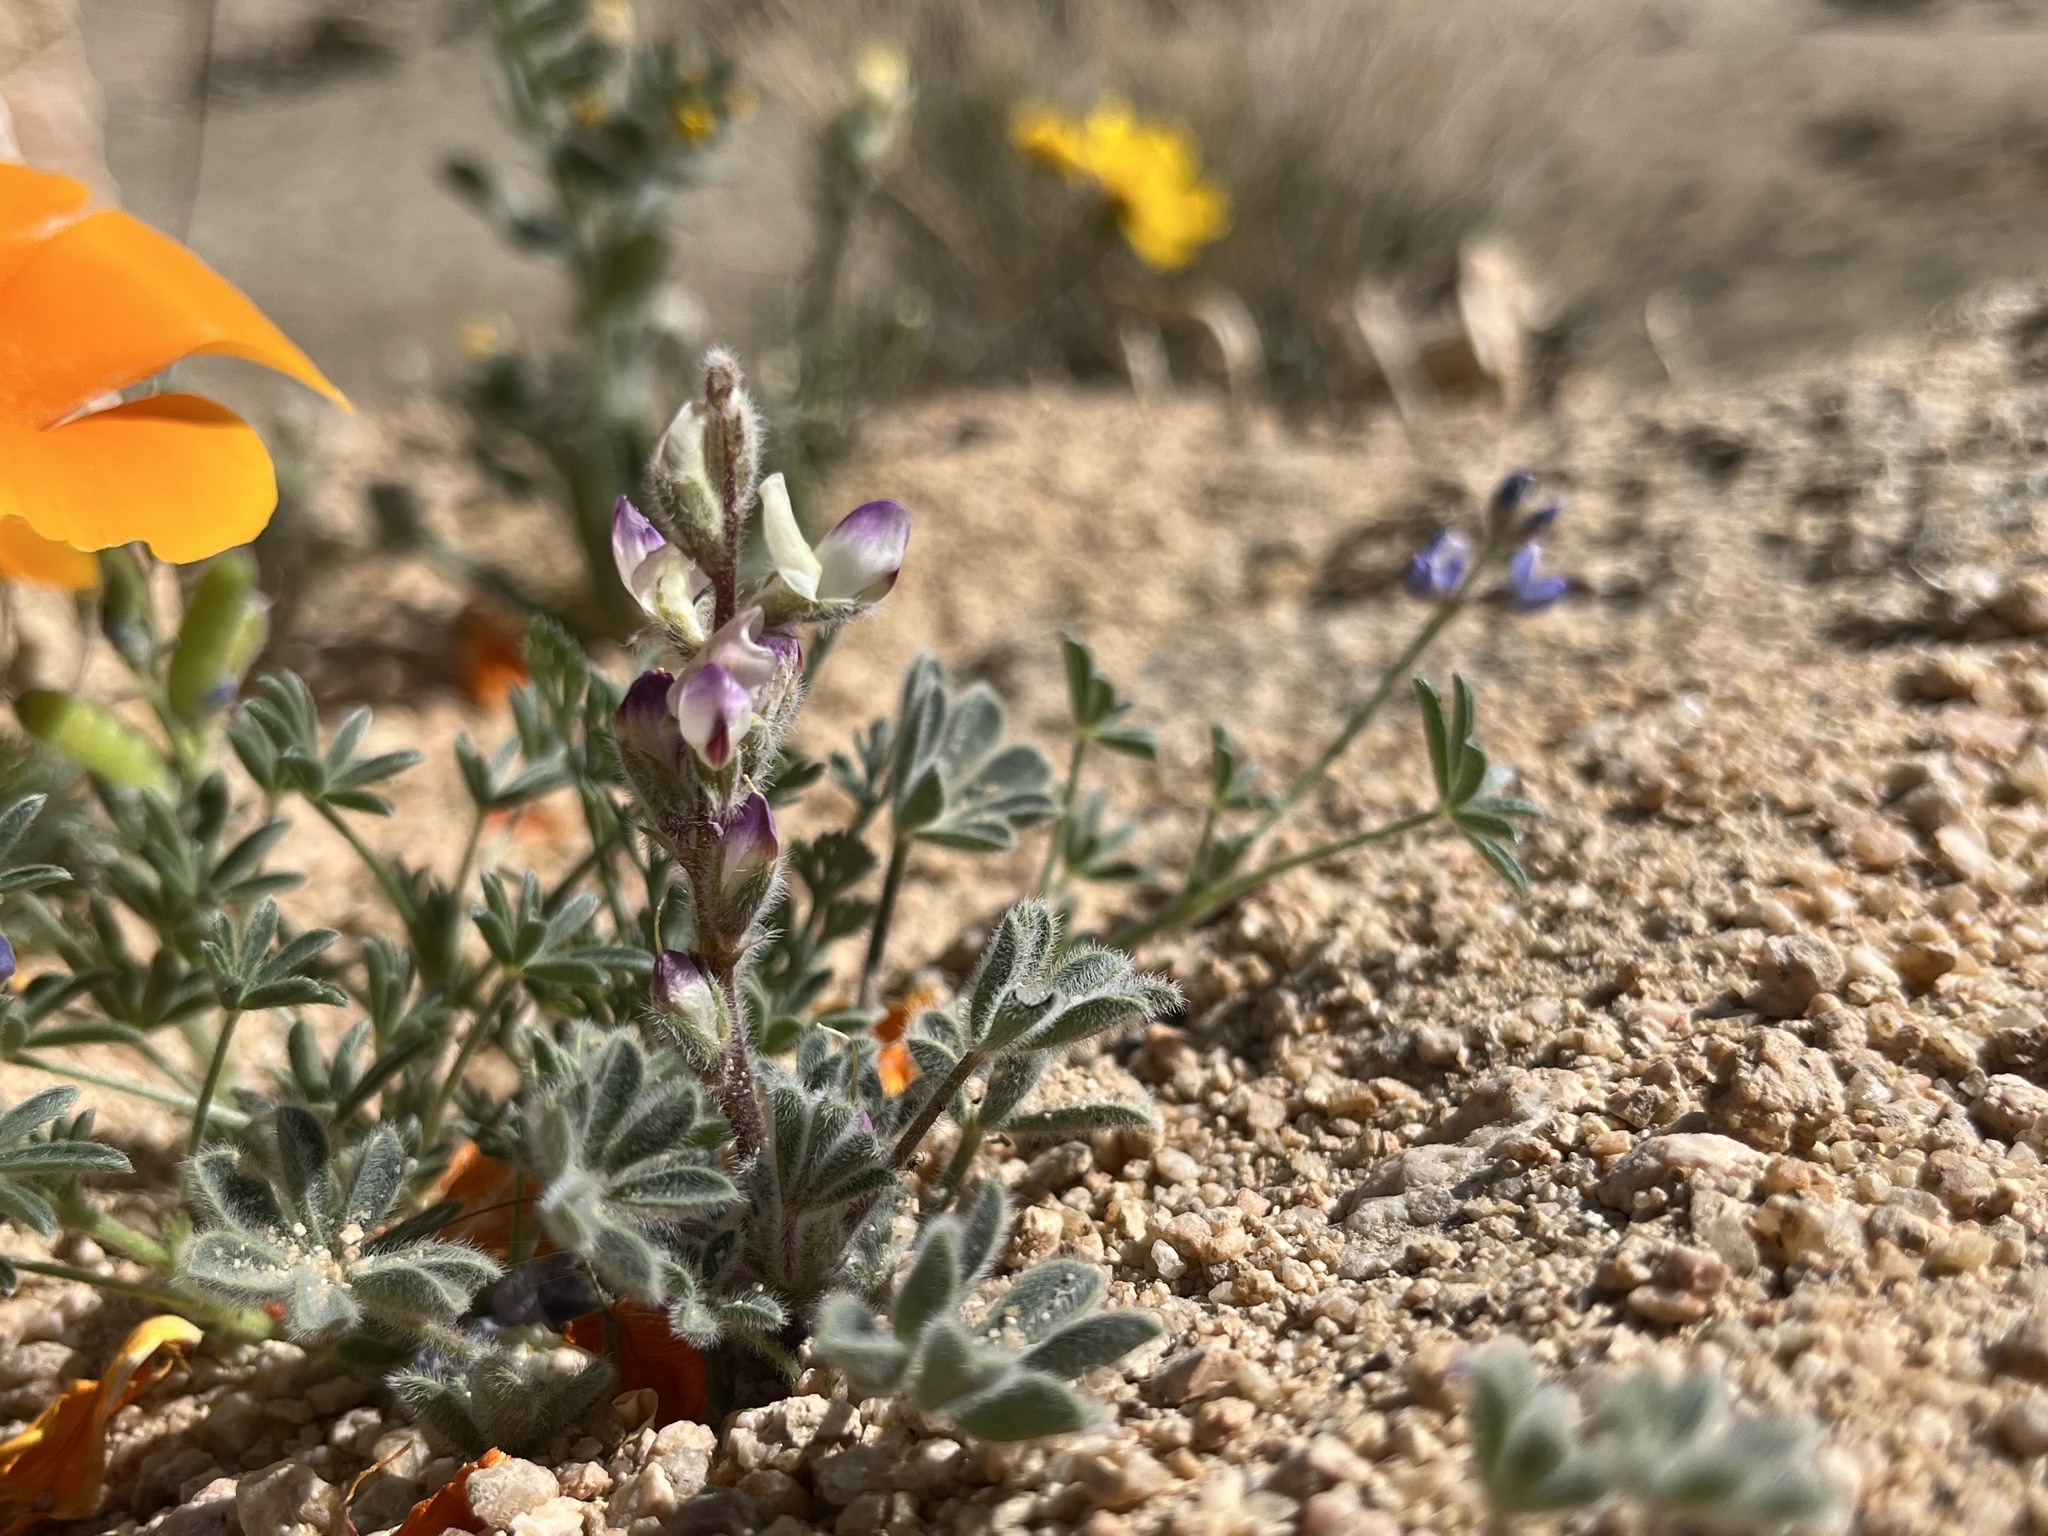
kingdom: Plantae
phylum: Tracheophyta
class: Magnoliopsida
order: Fabales
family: Fabaceae
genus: Lupinus
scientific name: Lupinus concinnus
